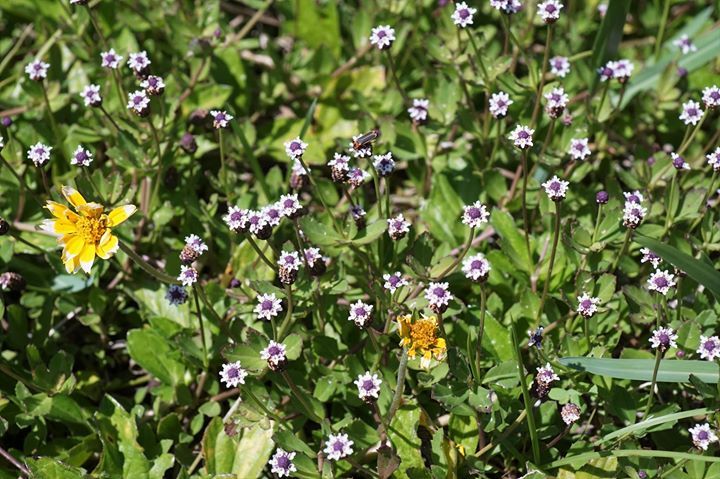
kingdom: Plantae
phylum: Tracheophyta
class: Magnoliopsida
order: Lamiales
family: Verbenaceae
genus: Phyla
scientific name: Phyla nodiflora
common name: Frogfruit
